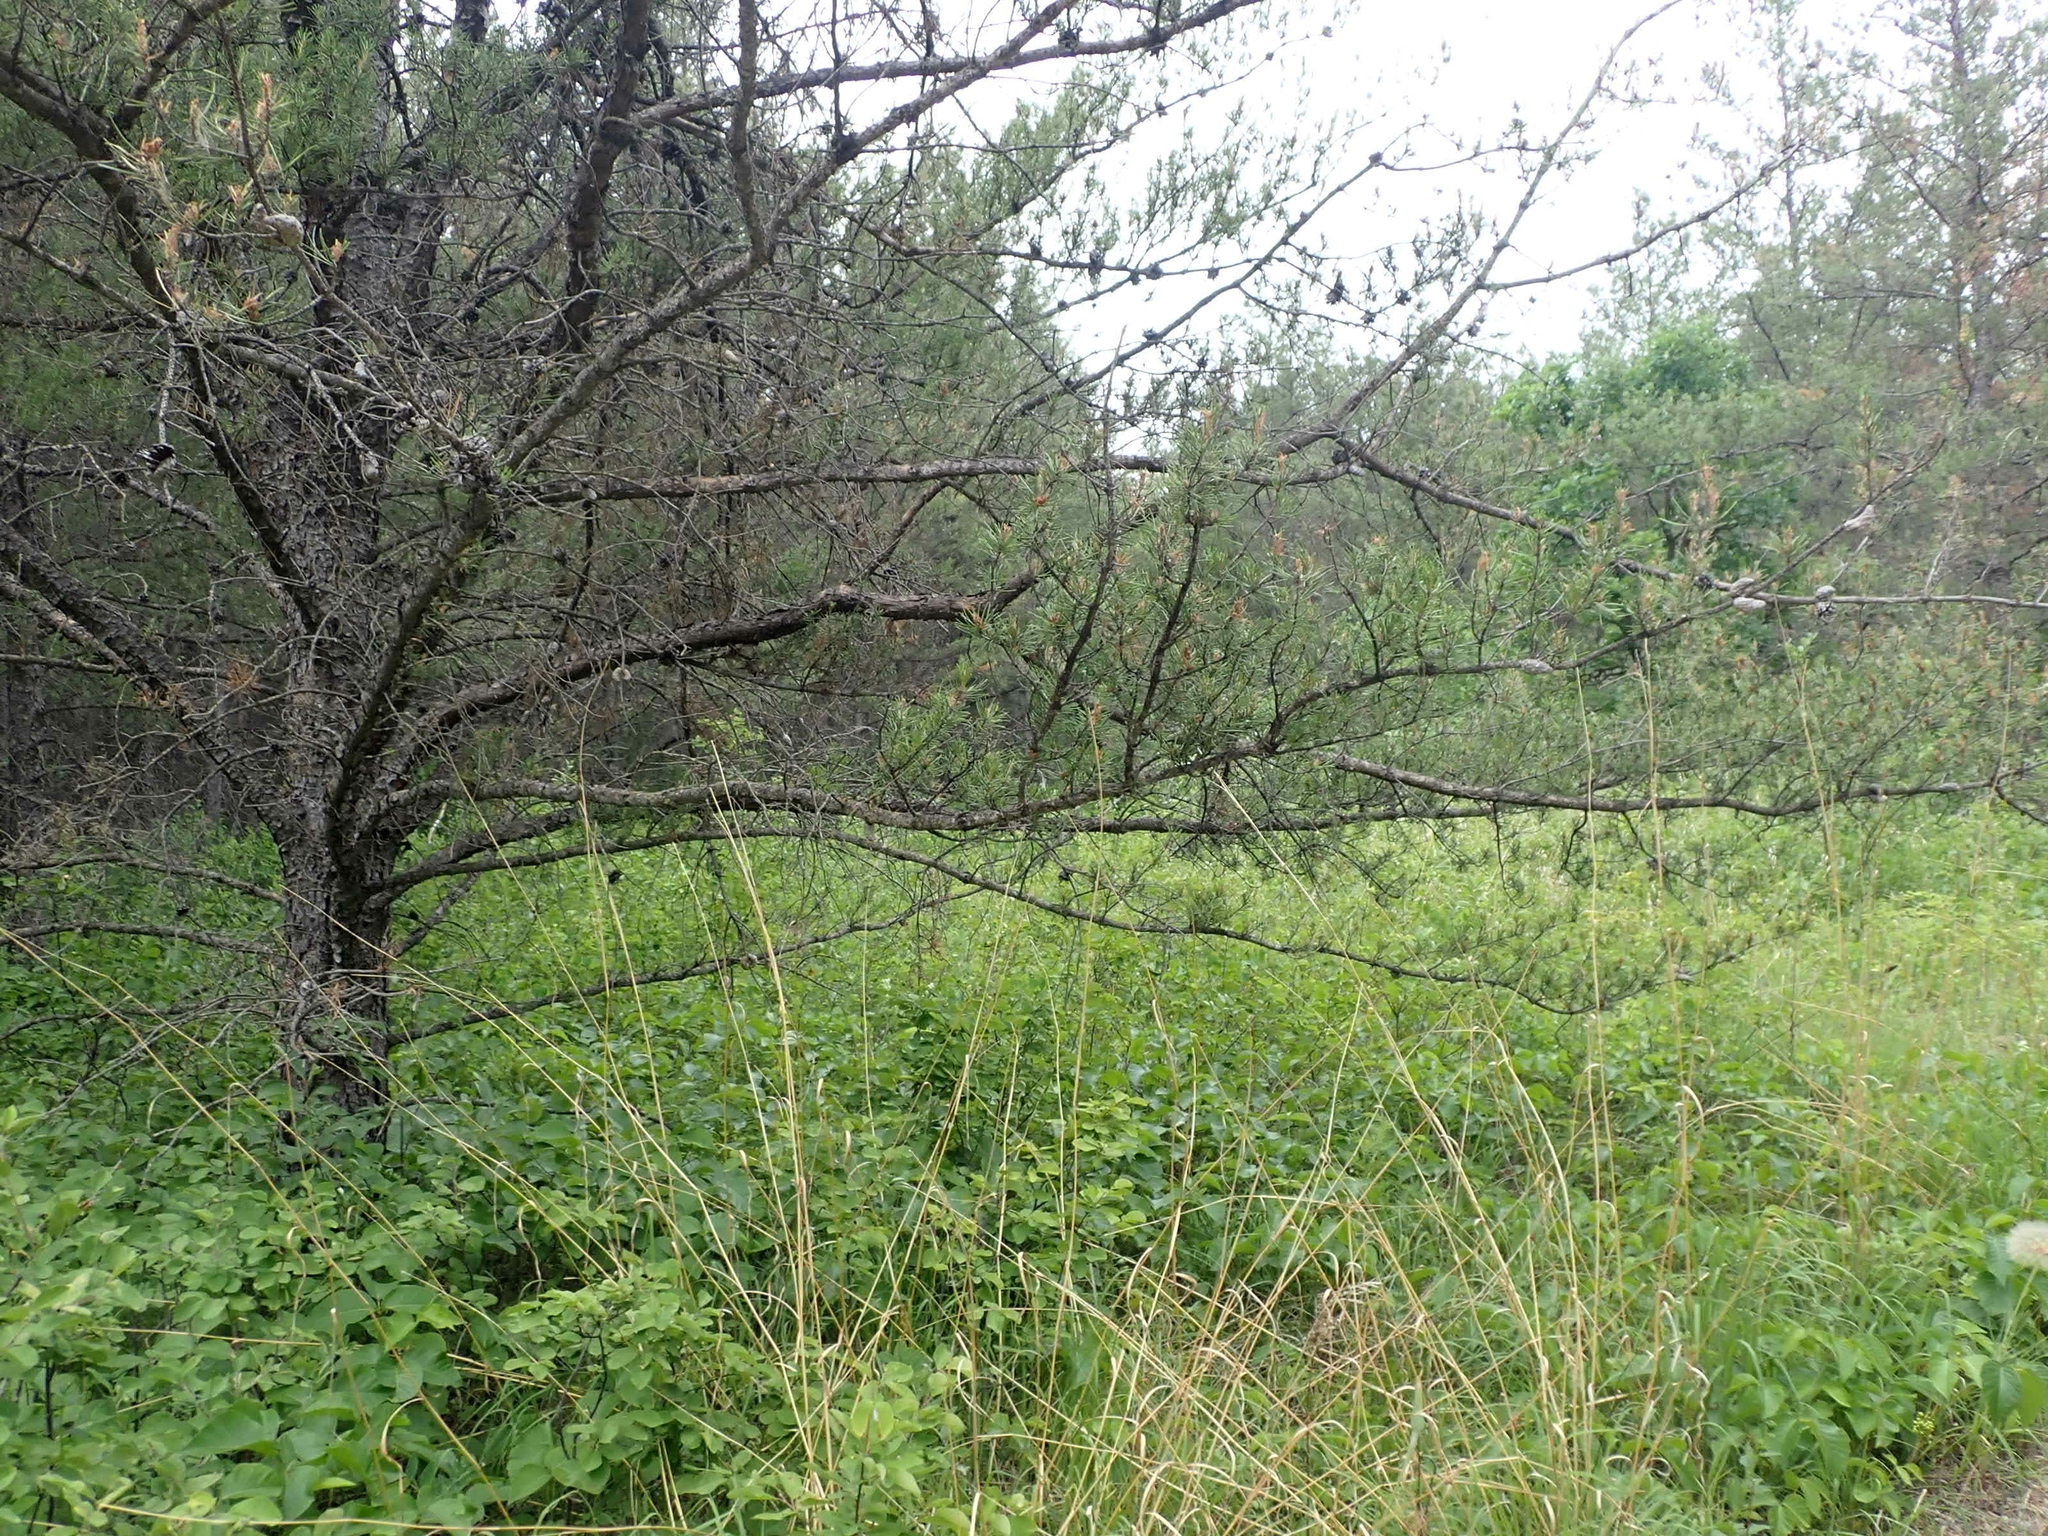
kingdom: Plantae
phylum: Tracheophyta
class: Pinopsida
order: Pinales
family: Pinaceae
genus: Pinus
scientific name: Pinus banksiana
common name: Jack pine
